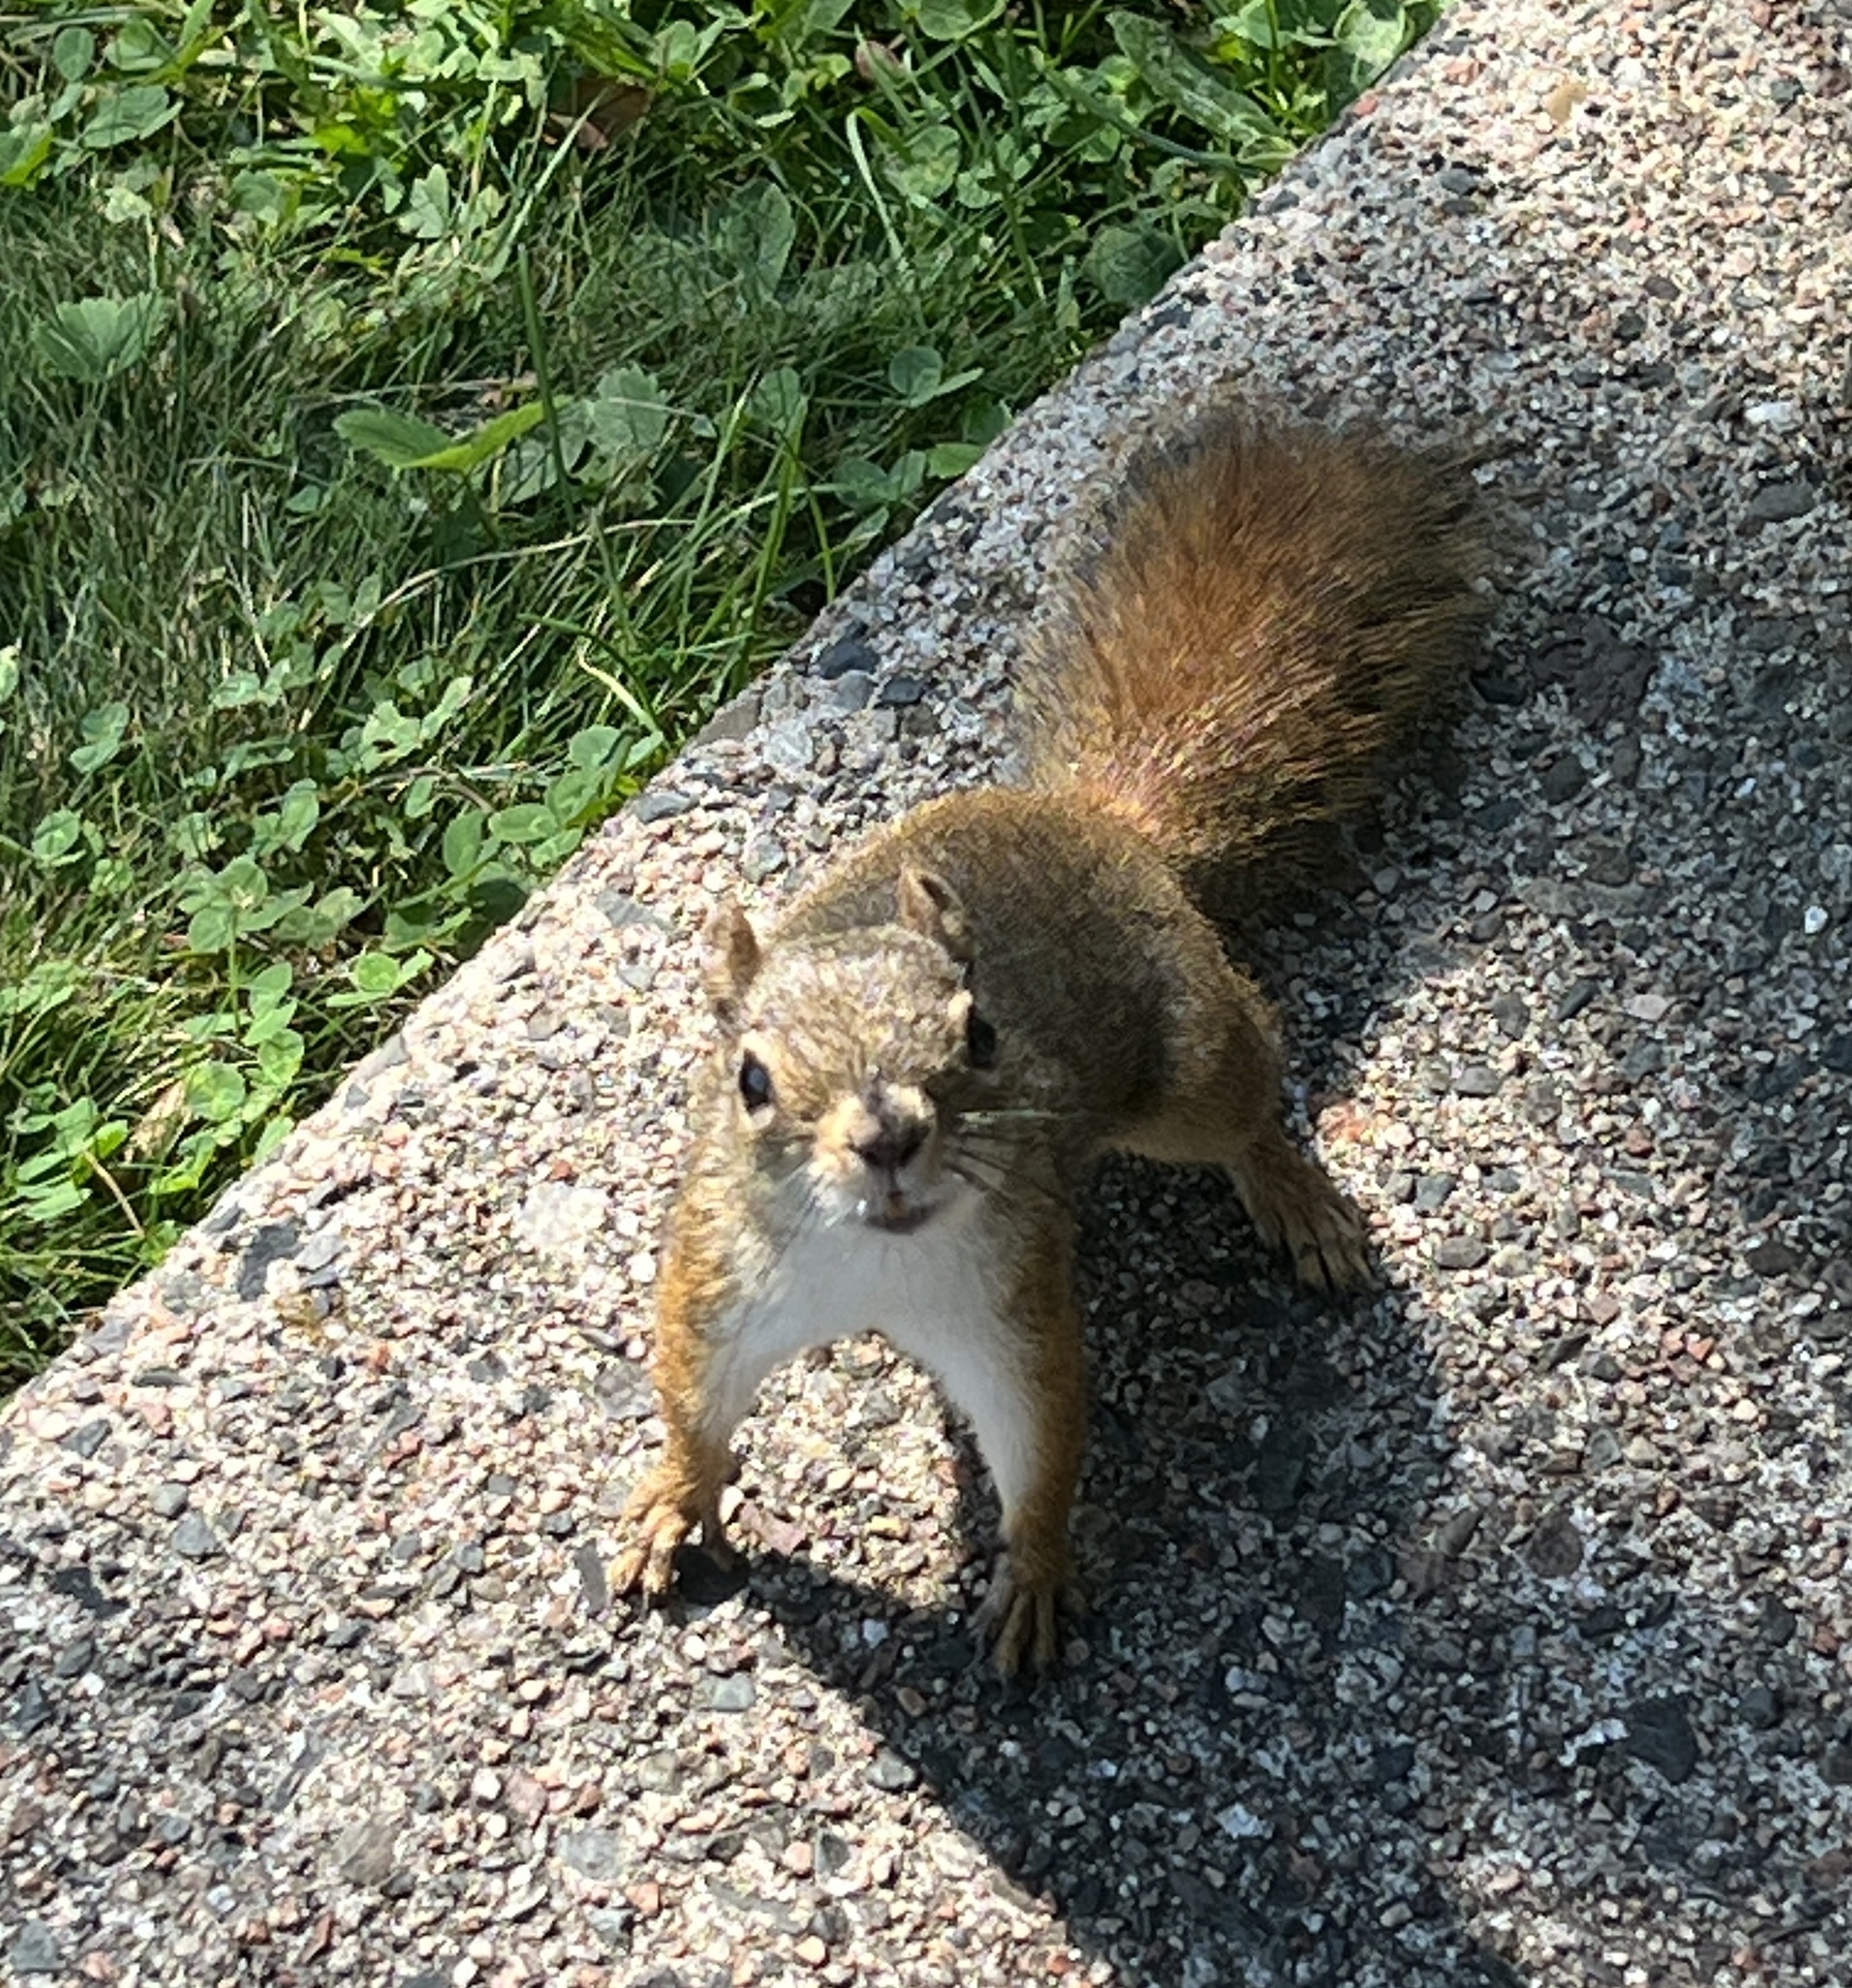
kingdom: Animalia
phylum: Chordata
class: Mammalia
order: Rodentia
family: Sciuridae
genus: Tamiasciurus
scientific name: Tamiasciurus hudsonicus
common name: Red squirrel
